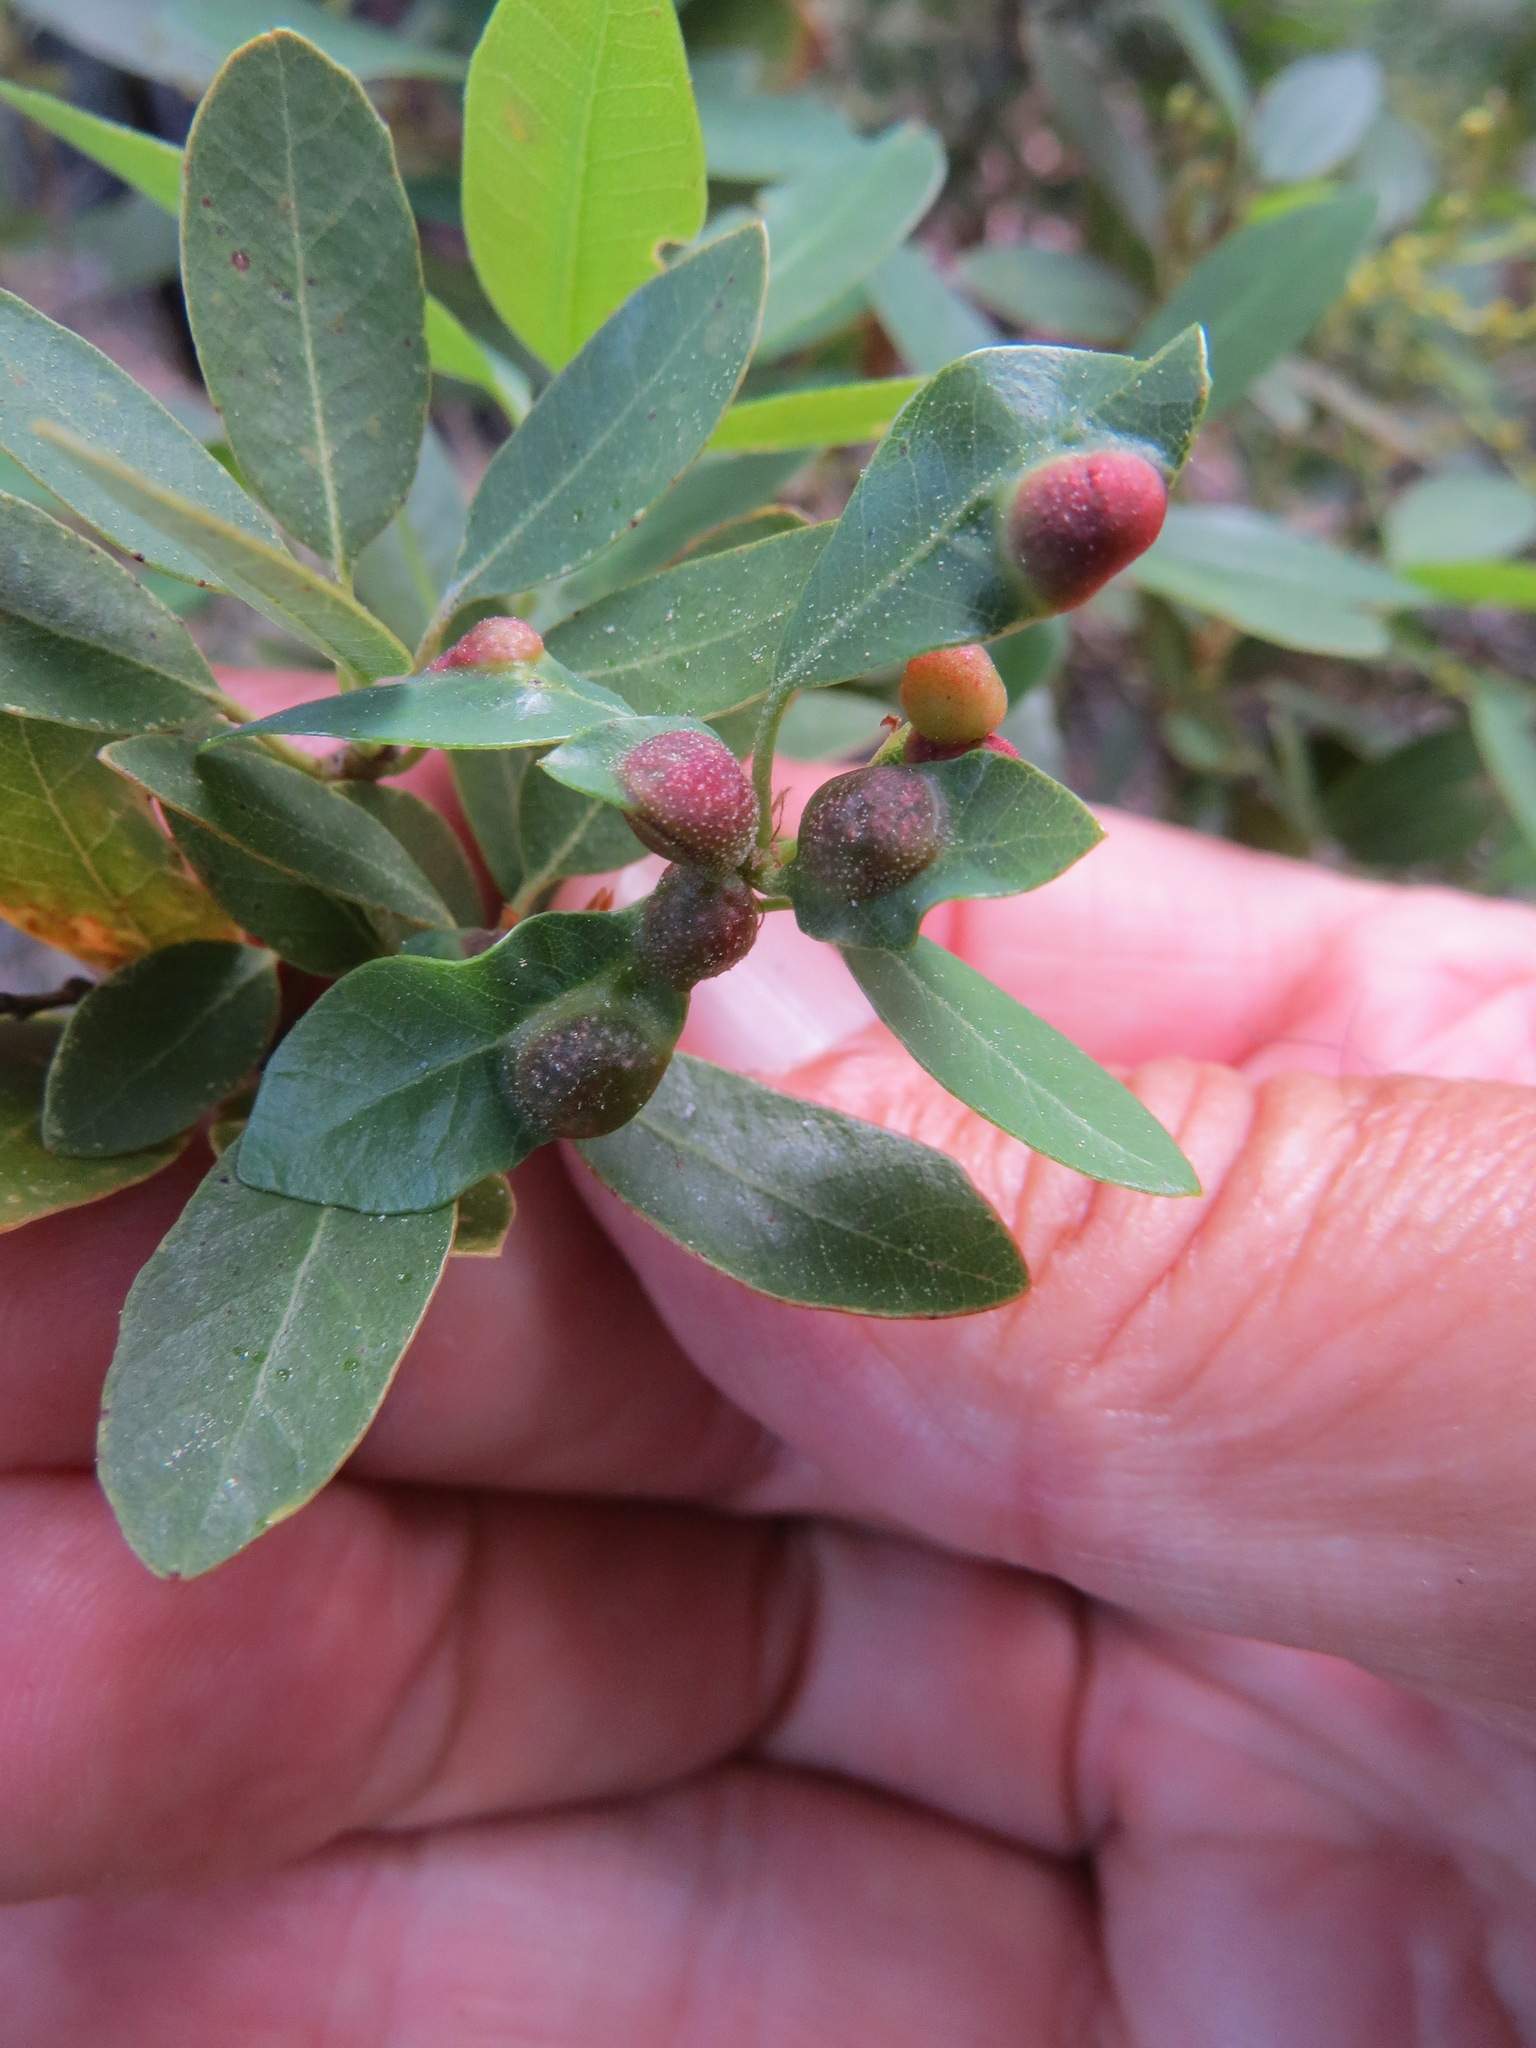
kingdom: Animalia
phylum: Arthropoda
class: Insecta
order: Hymenoptera
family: Cynipidae
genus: Heteroecus
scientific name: Heteroecus
